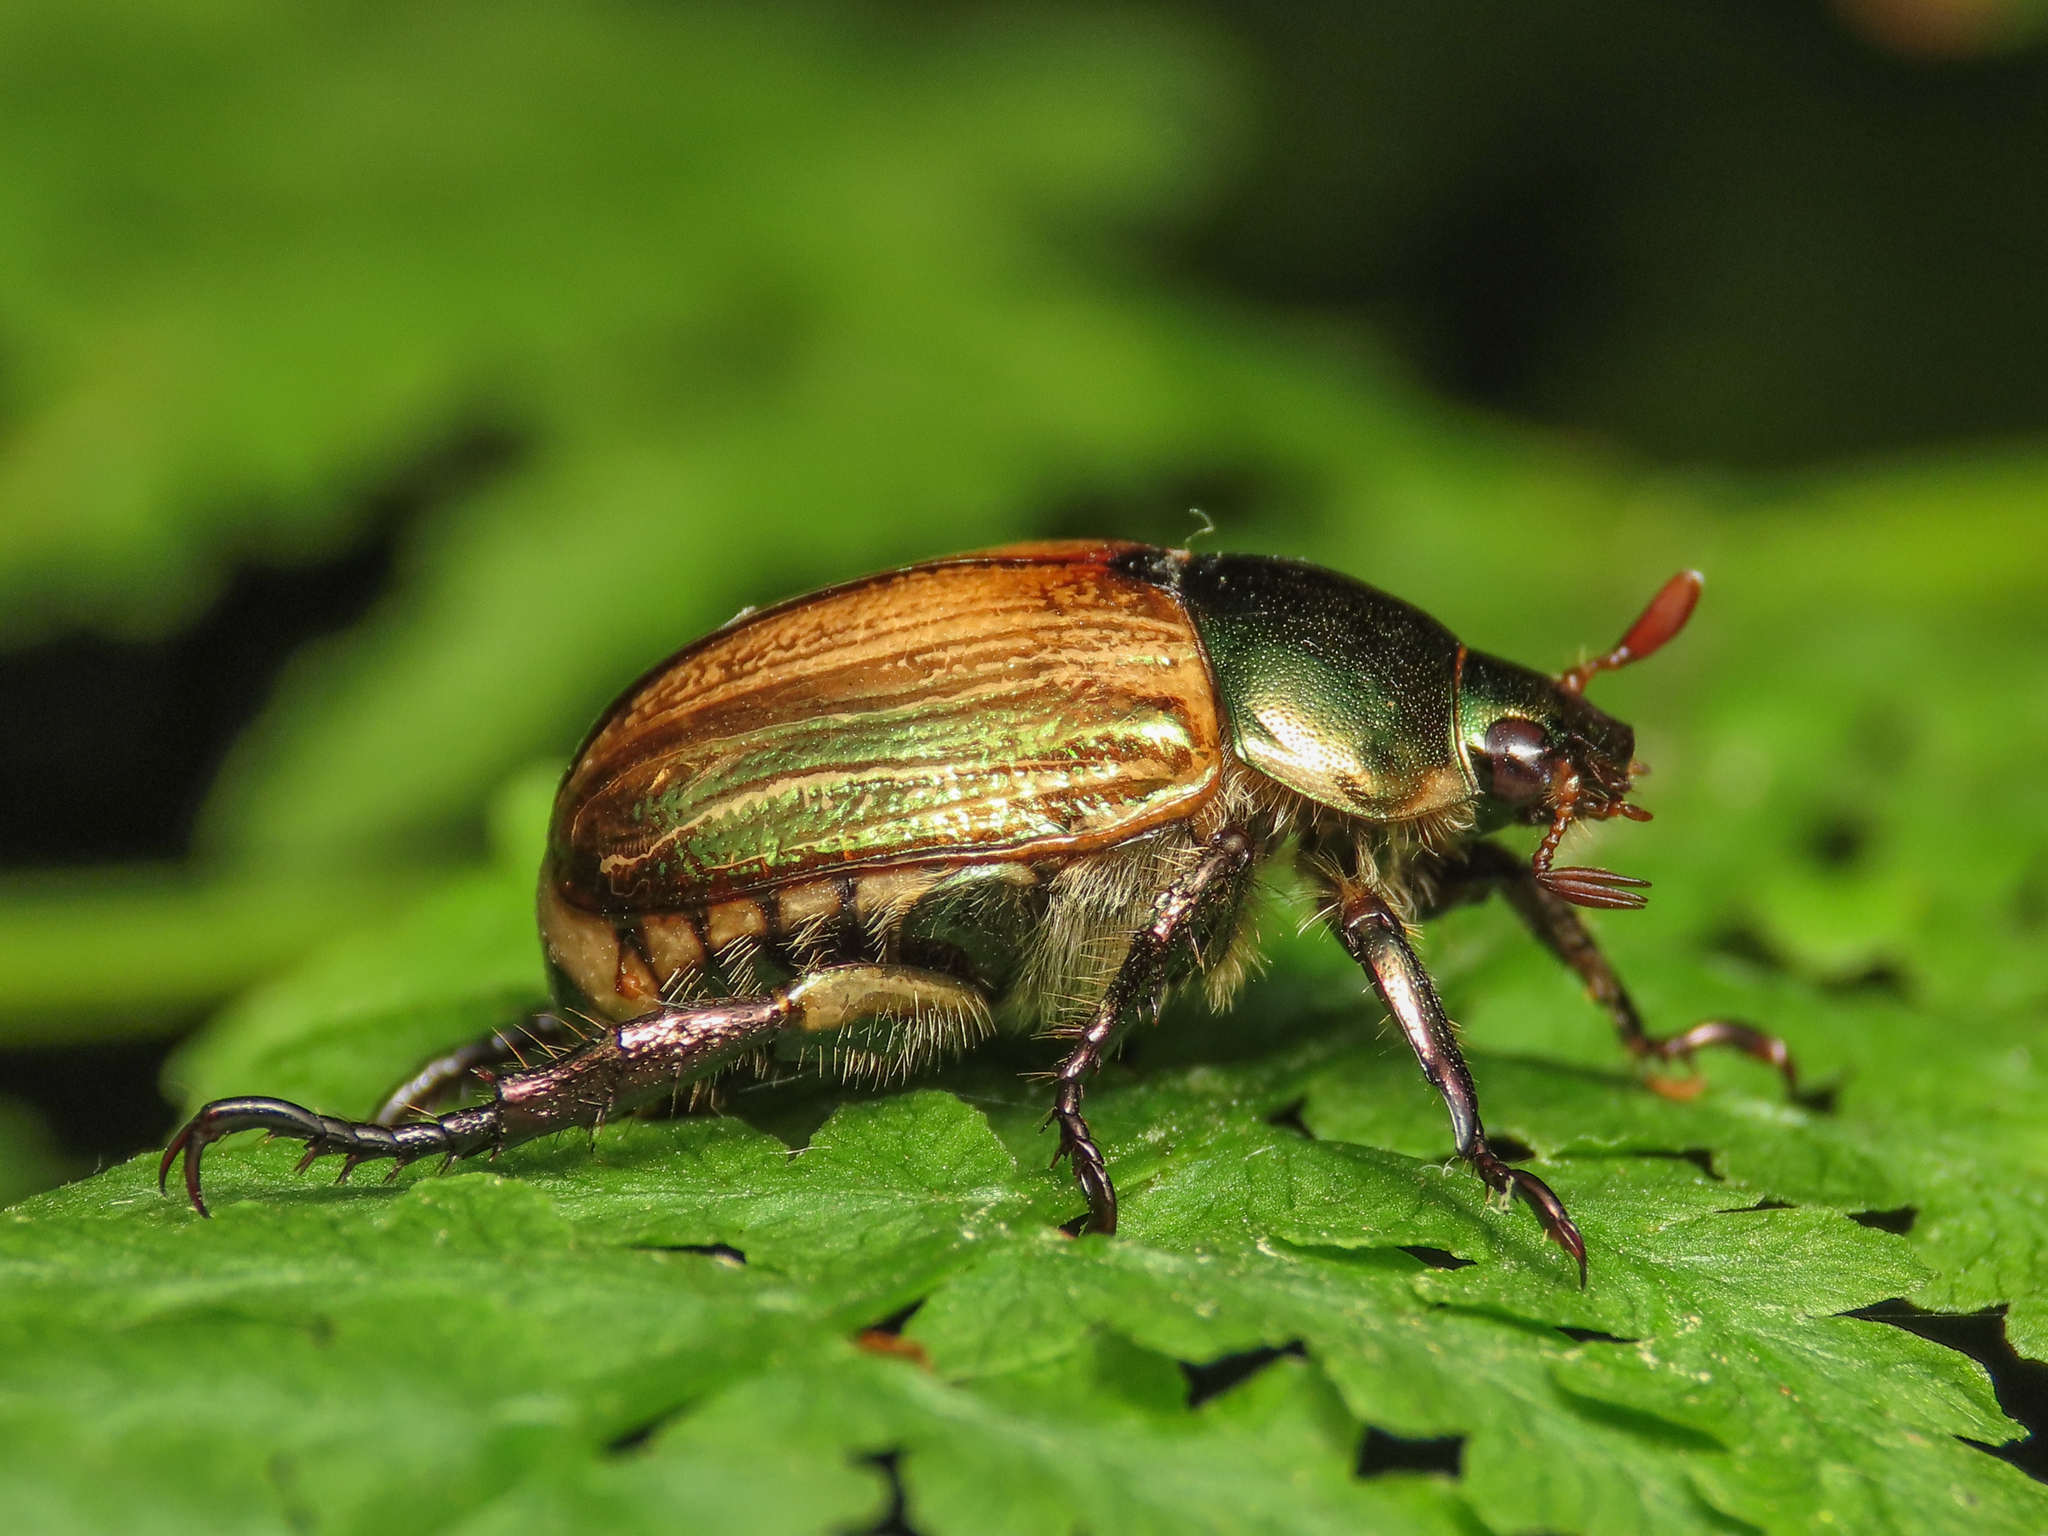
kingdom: Animalia
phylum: Arthropoda
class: Insecta
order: Coleoptera
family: Scarabaeidae
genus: Mimela
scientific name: Mimela junii
